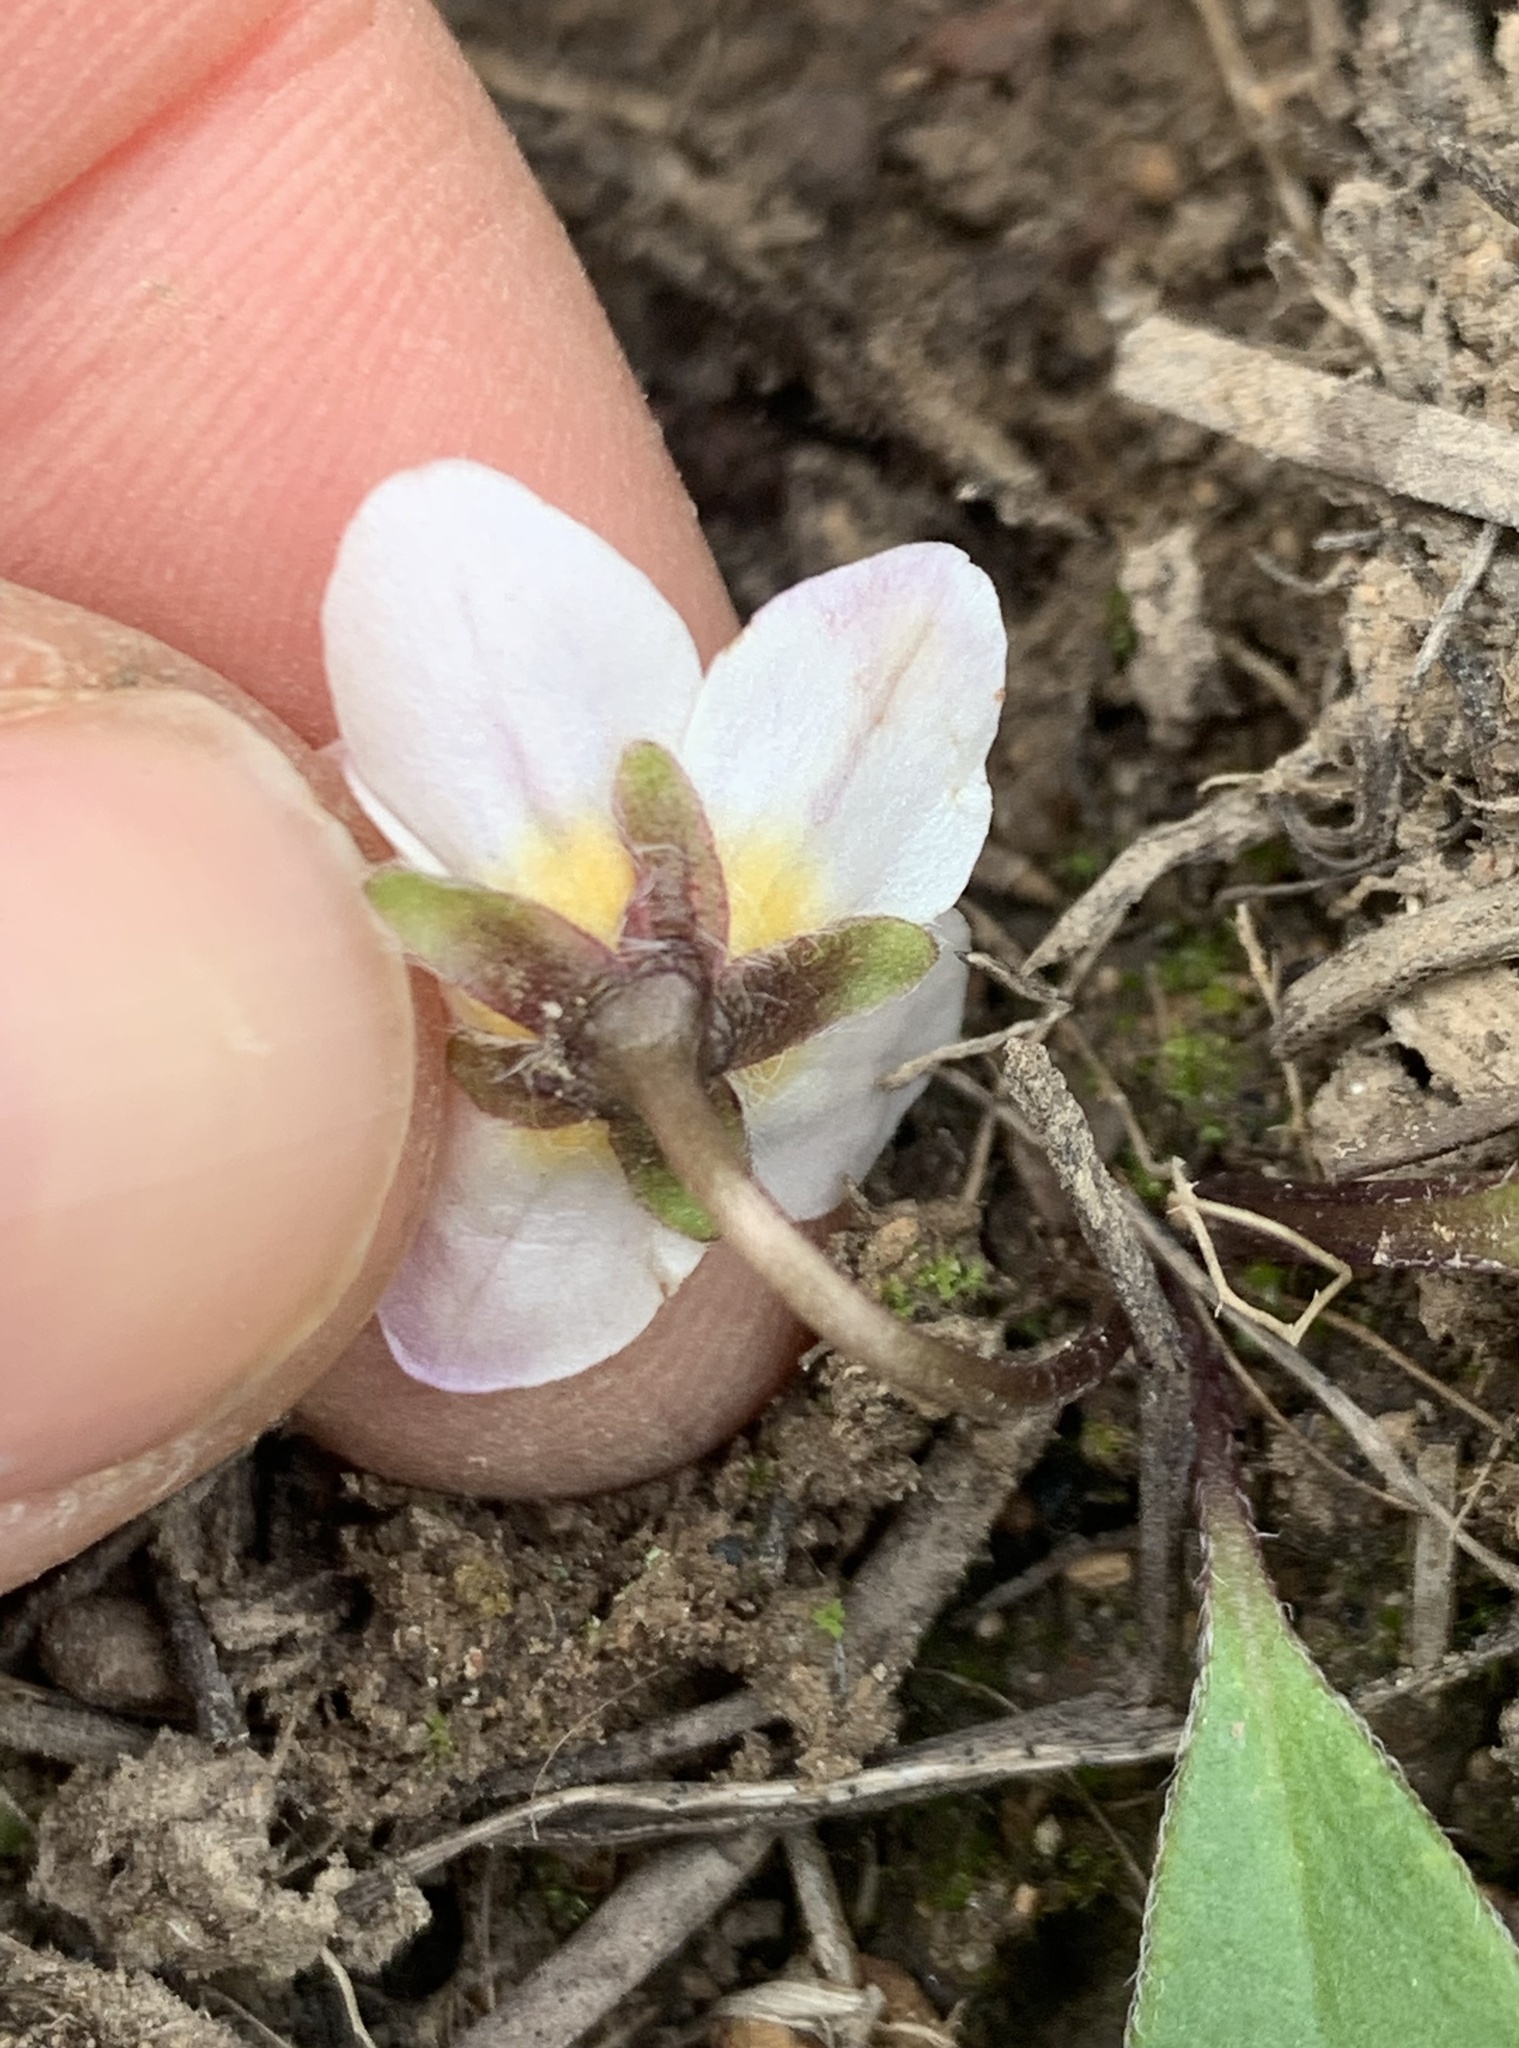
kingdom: Plantae
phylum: Tracheophyta
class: Magnoliopsida
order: Boraginales
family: Hydrophyllaceae
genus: Hesperochiron
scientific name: Hesperochiron pumilus
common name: Dwarf hesperochiron
